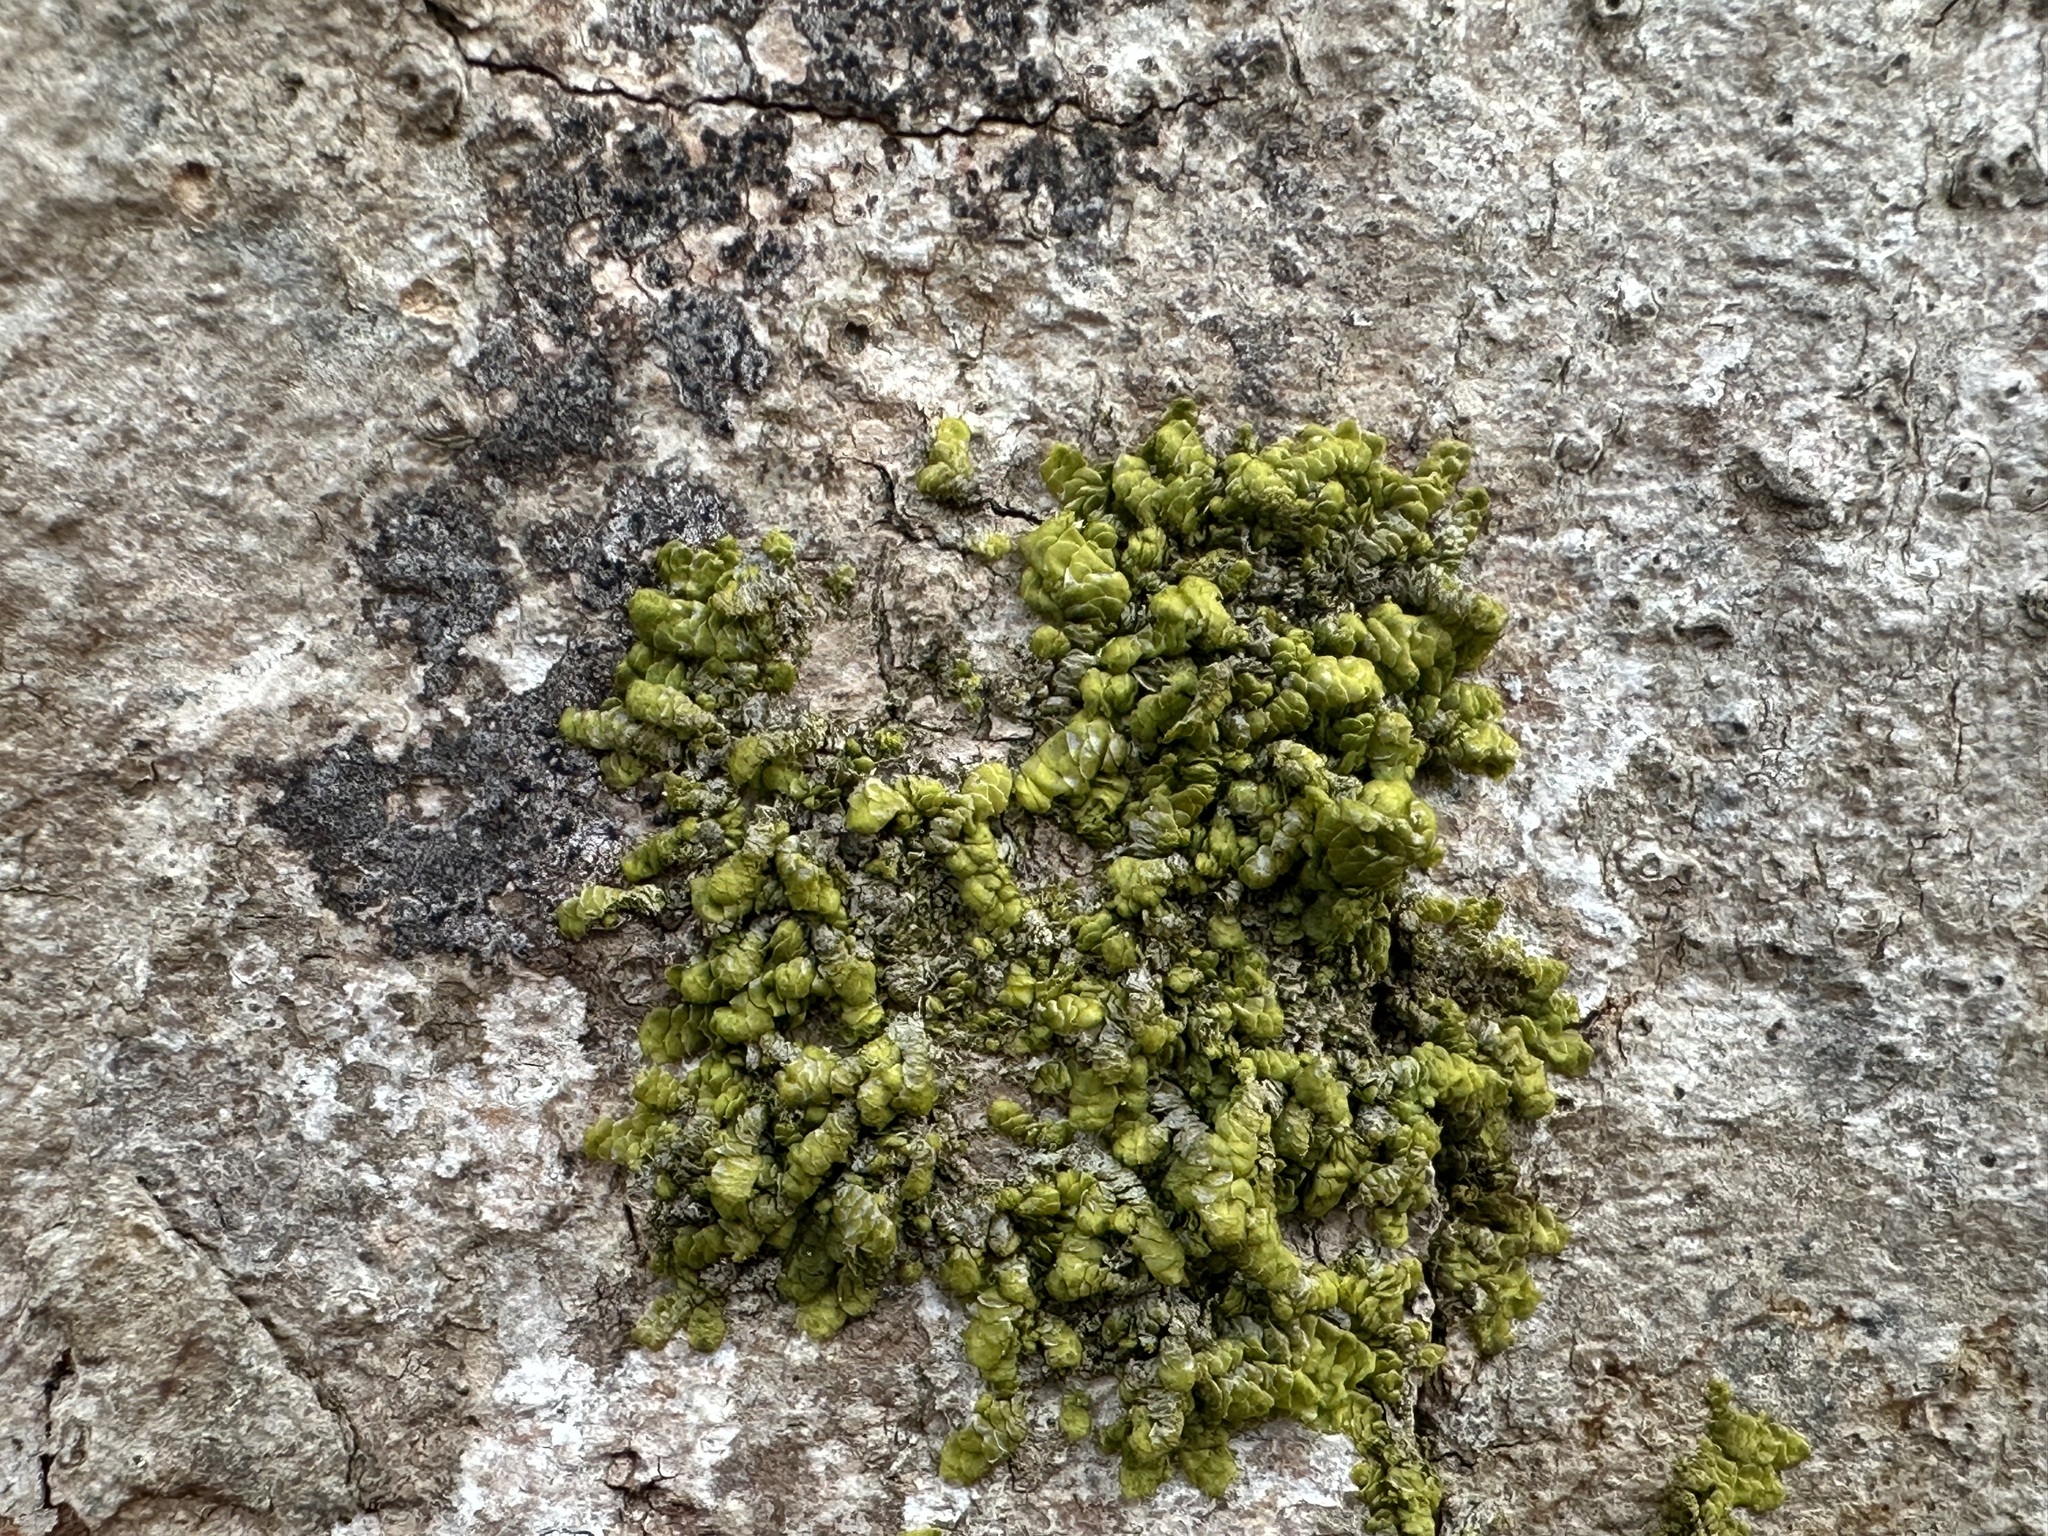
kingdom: Plantae
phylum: Marchantiophyta
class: Jungermanniopsida
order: Porellales
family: Radulaceae
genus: Radula
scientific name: Radula complanata
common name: Flat-leaved scalewort
